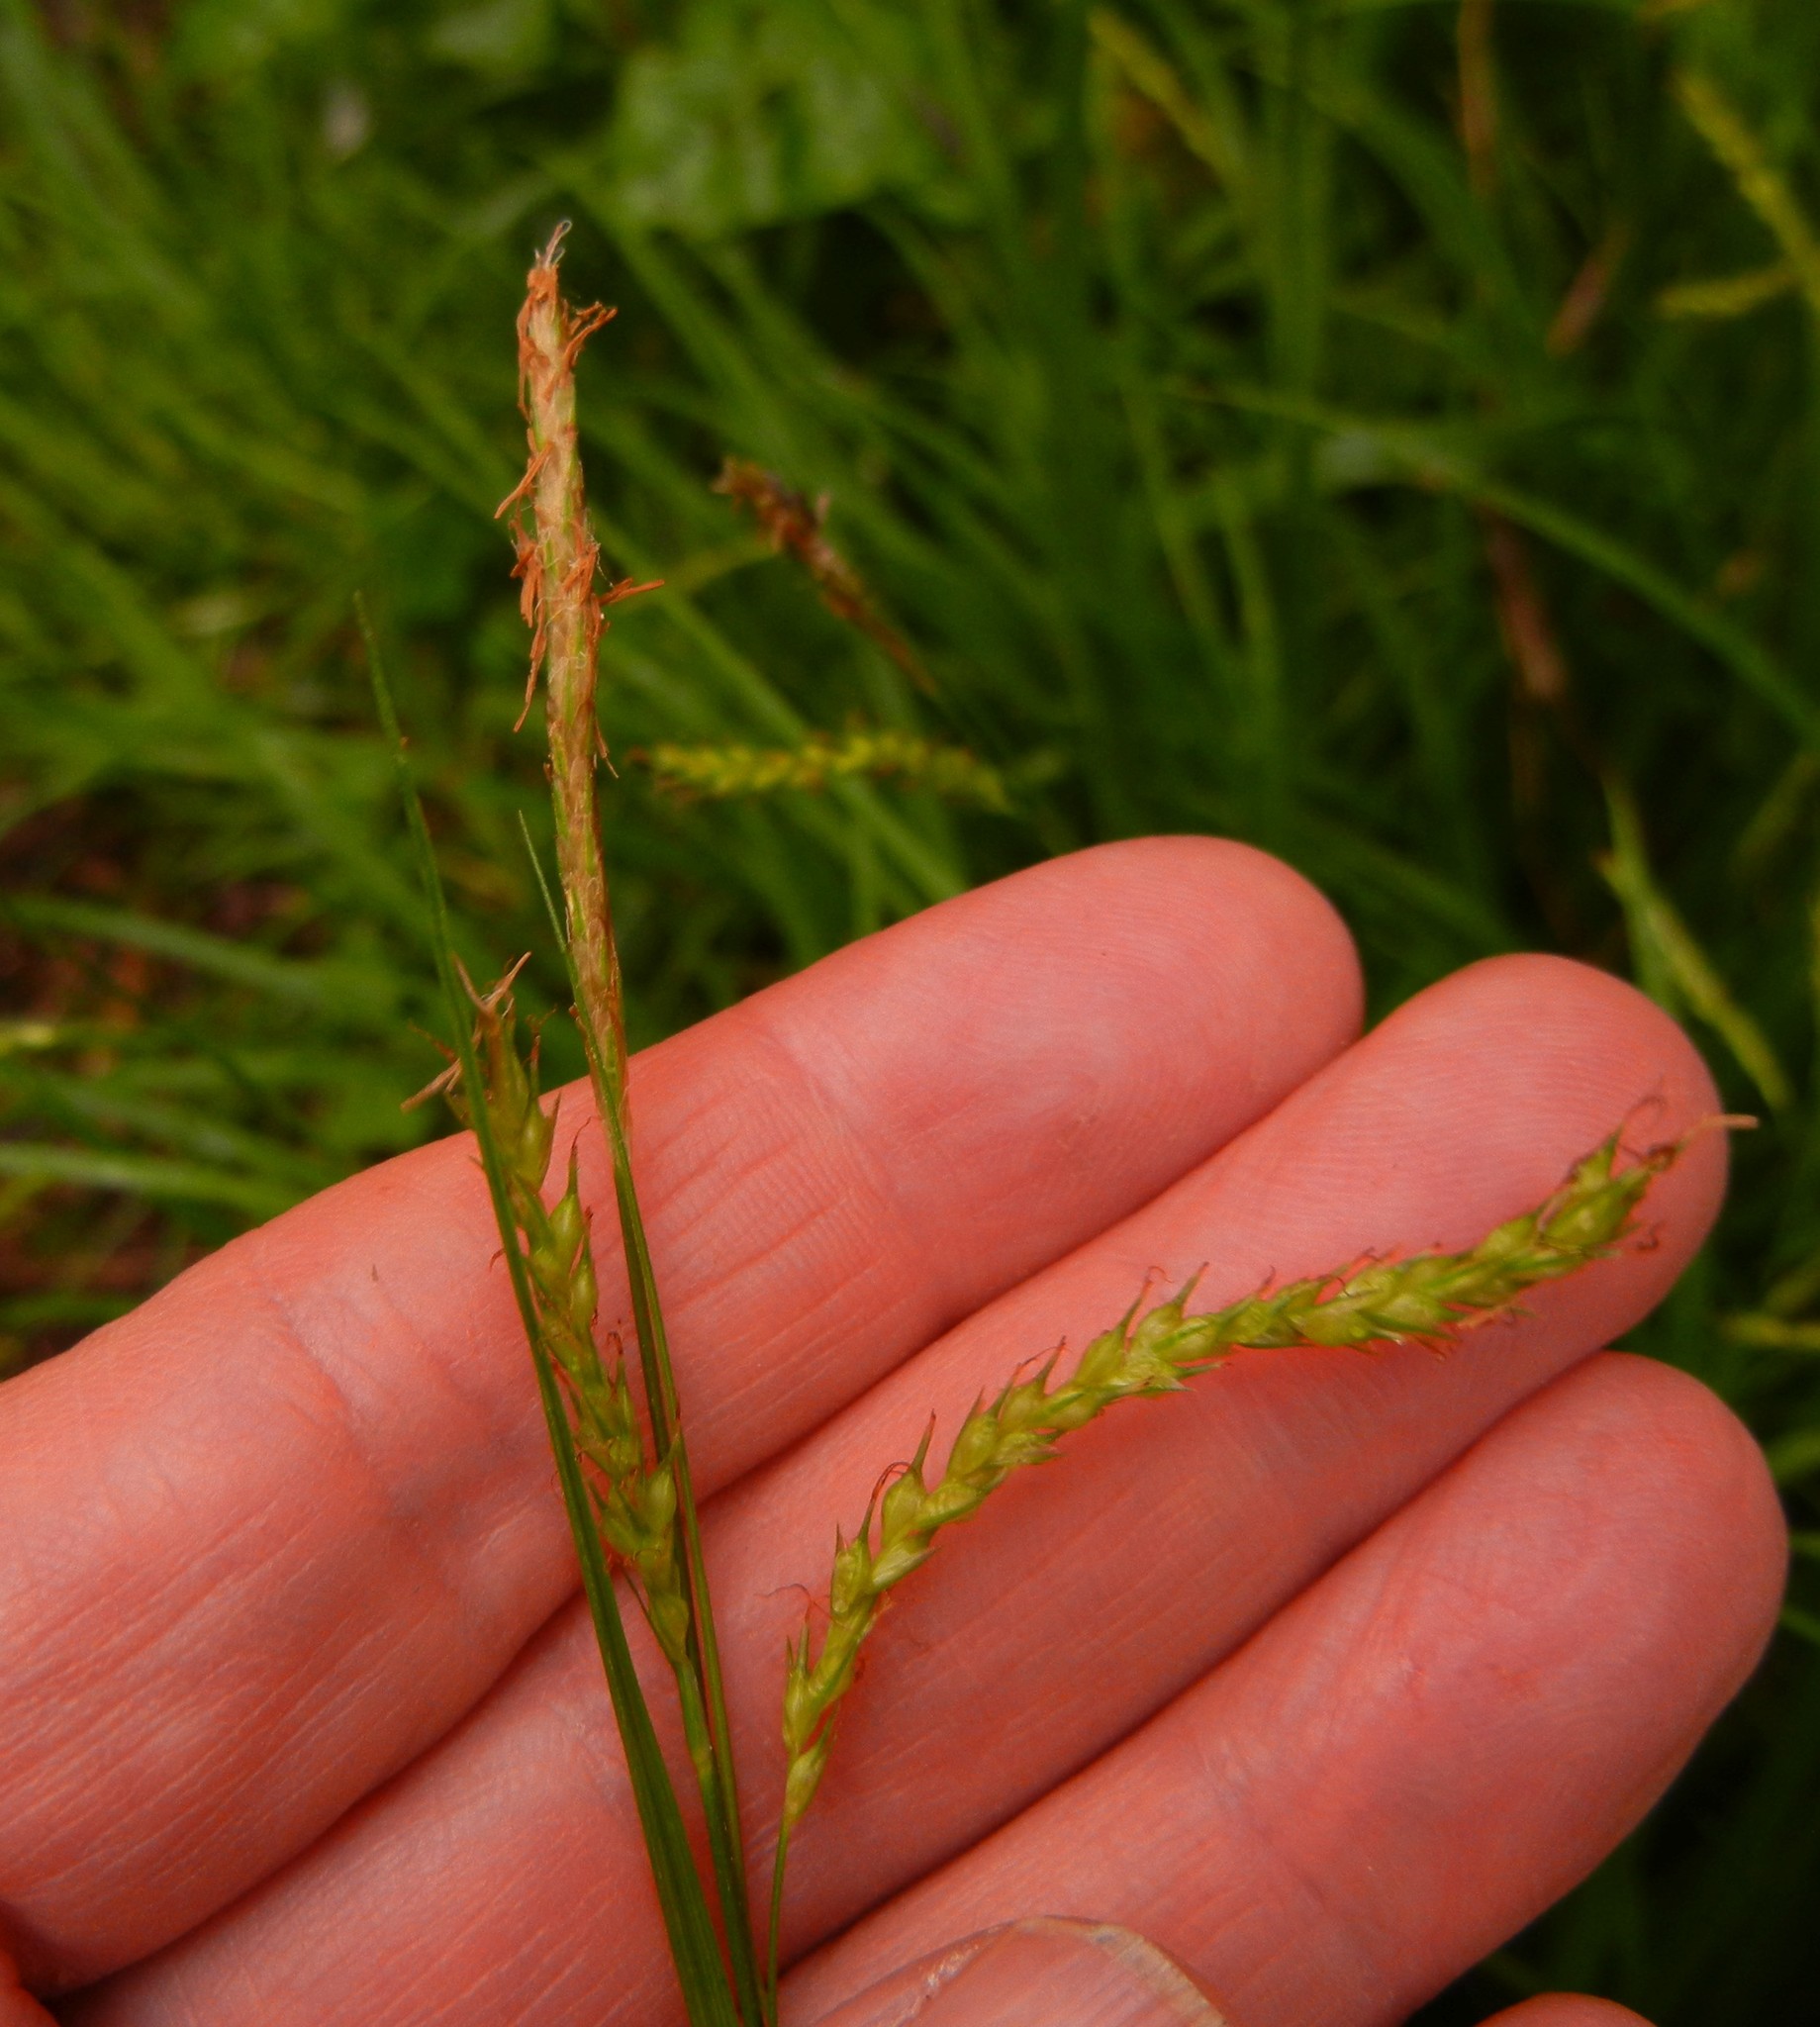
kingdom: Plantae
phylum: Tracheophyta
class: Liliopsida
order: Poales
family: Cyperaceae
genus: Carex
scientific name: Carex sylvatica
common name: Wood-sedge
